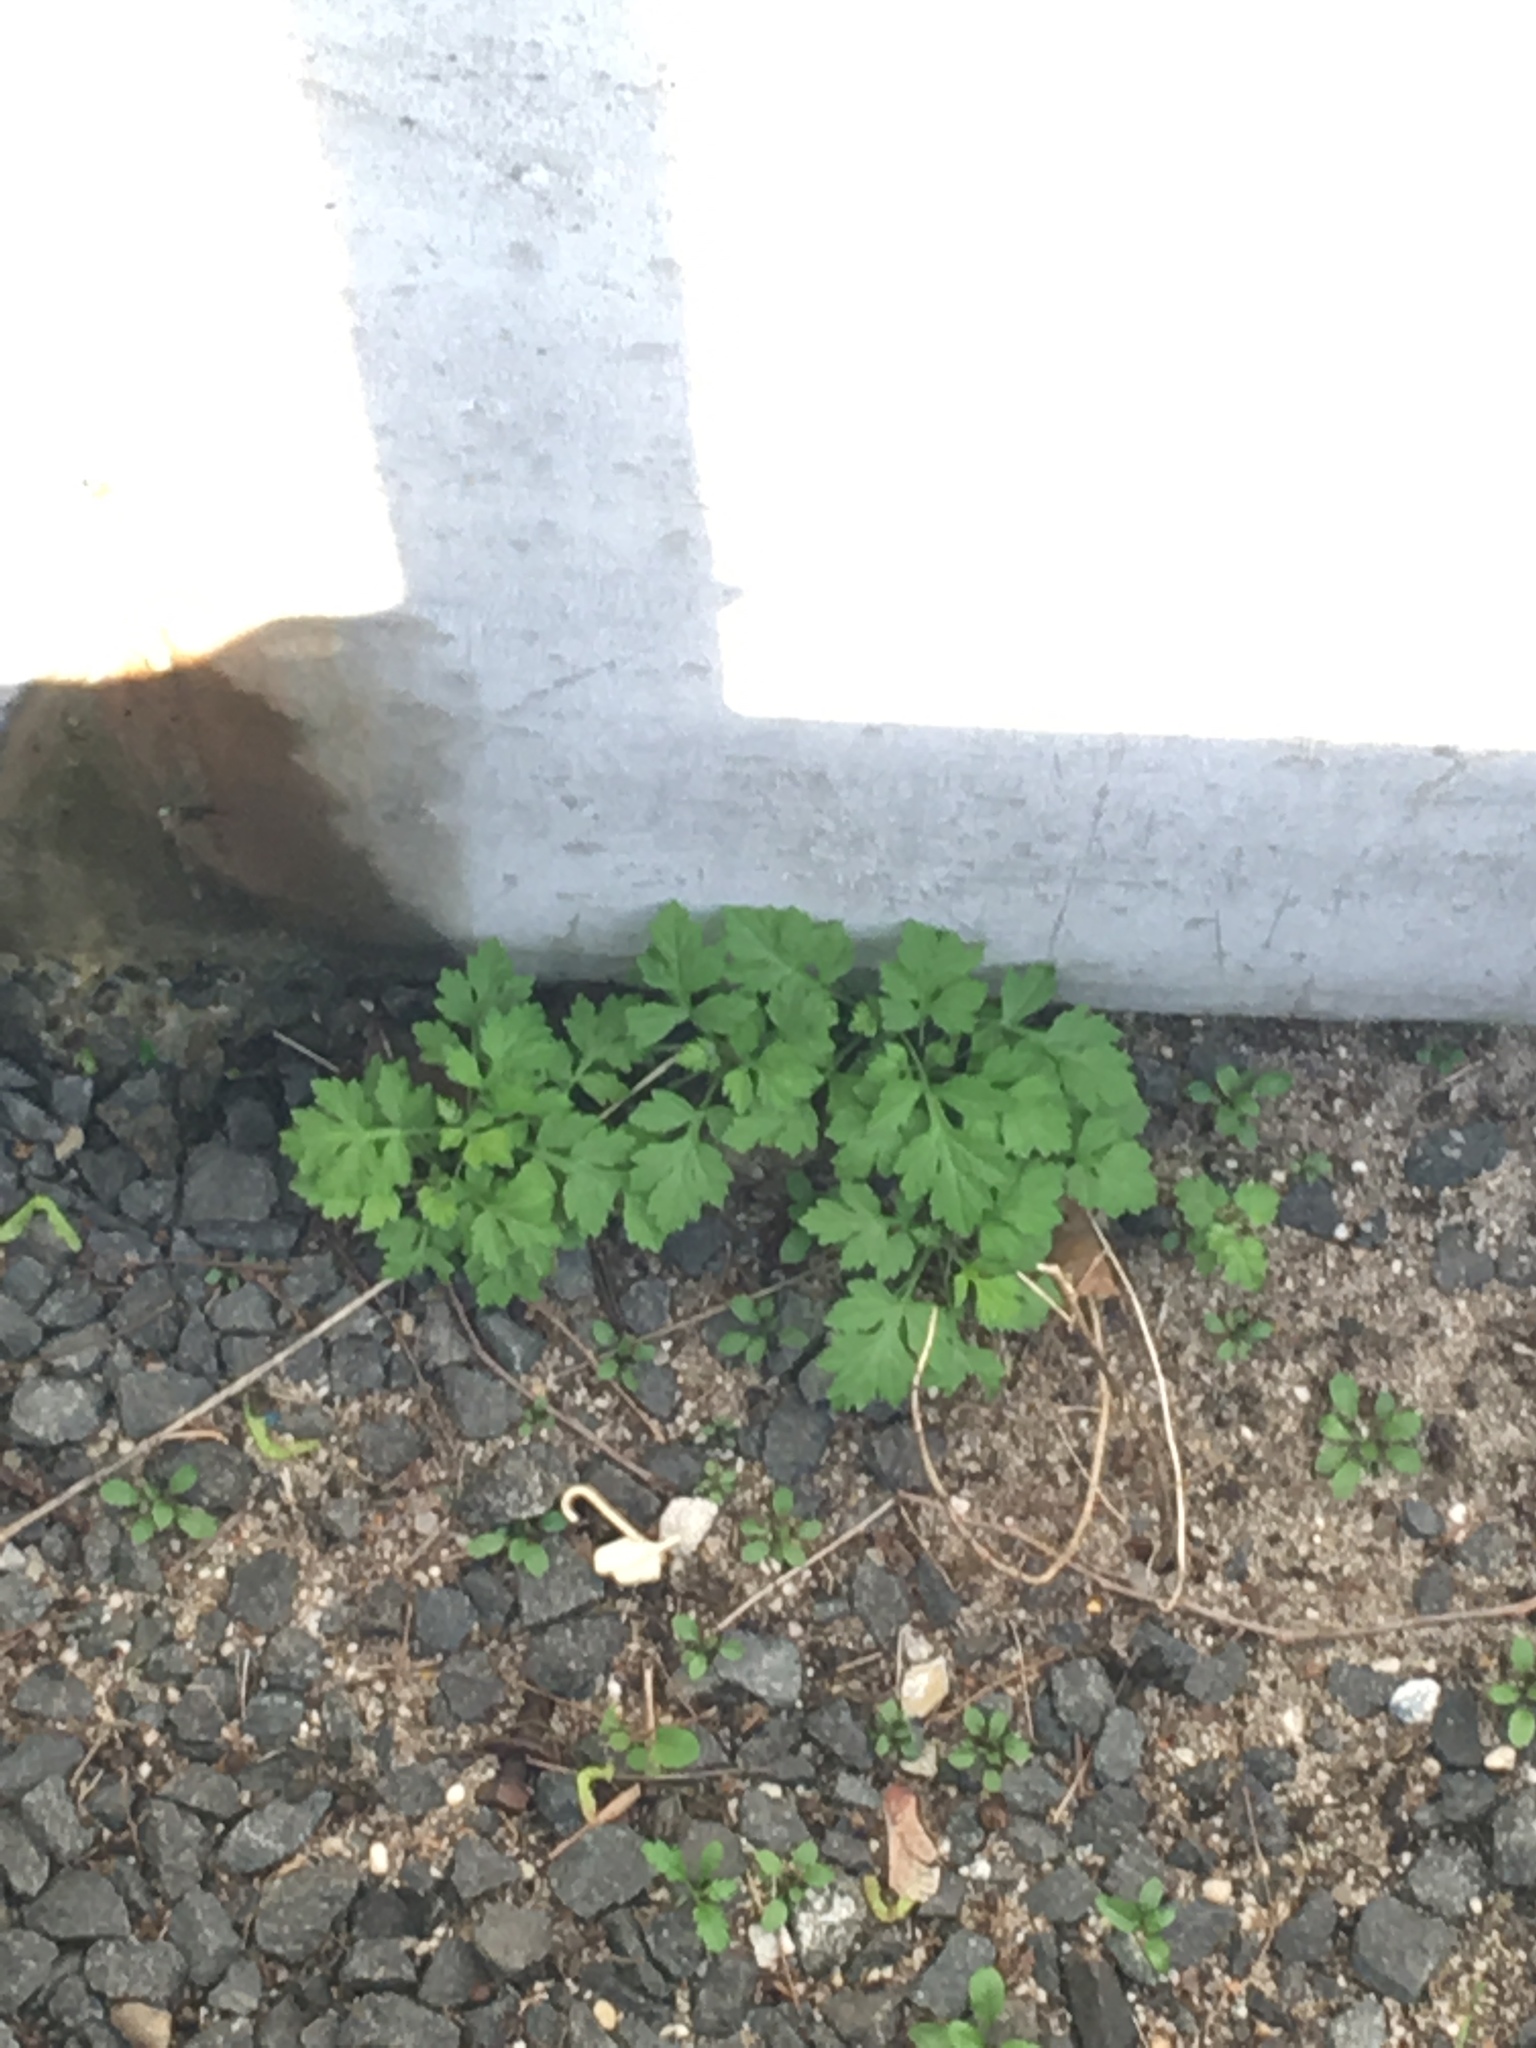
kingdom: Plantae
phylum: Tracheophyta
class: Magnoliopsida
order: Asterales
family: Asteraceae
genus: Artemisia
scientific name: Artemisia vulgaris
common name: Mugwort
